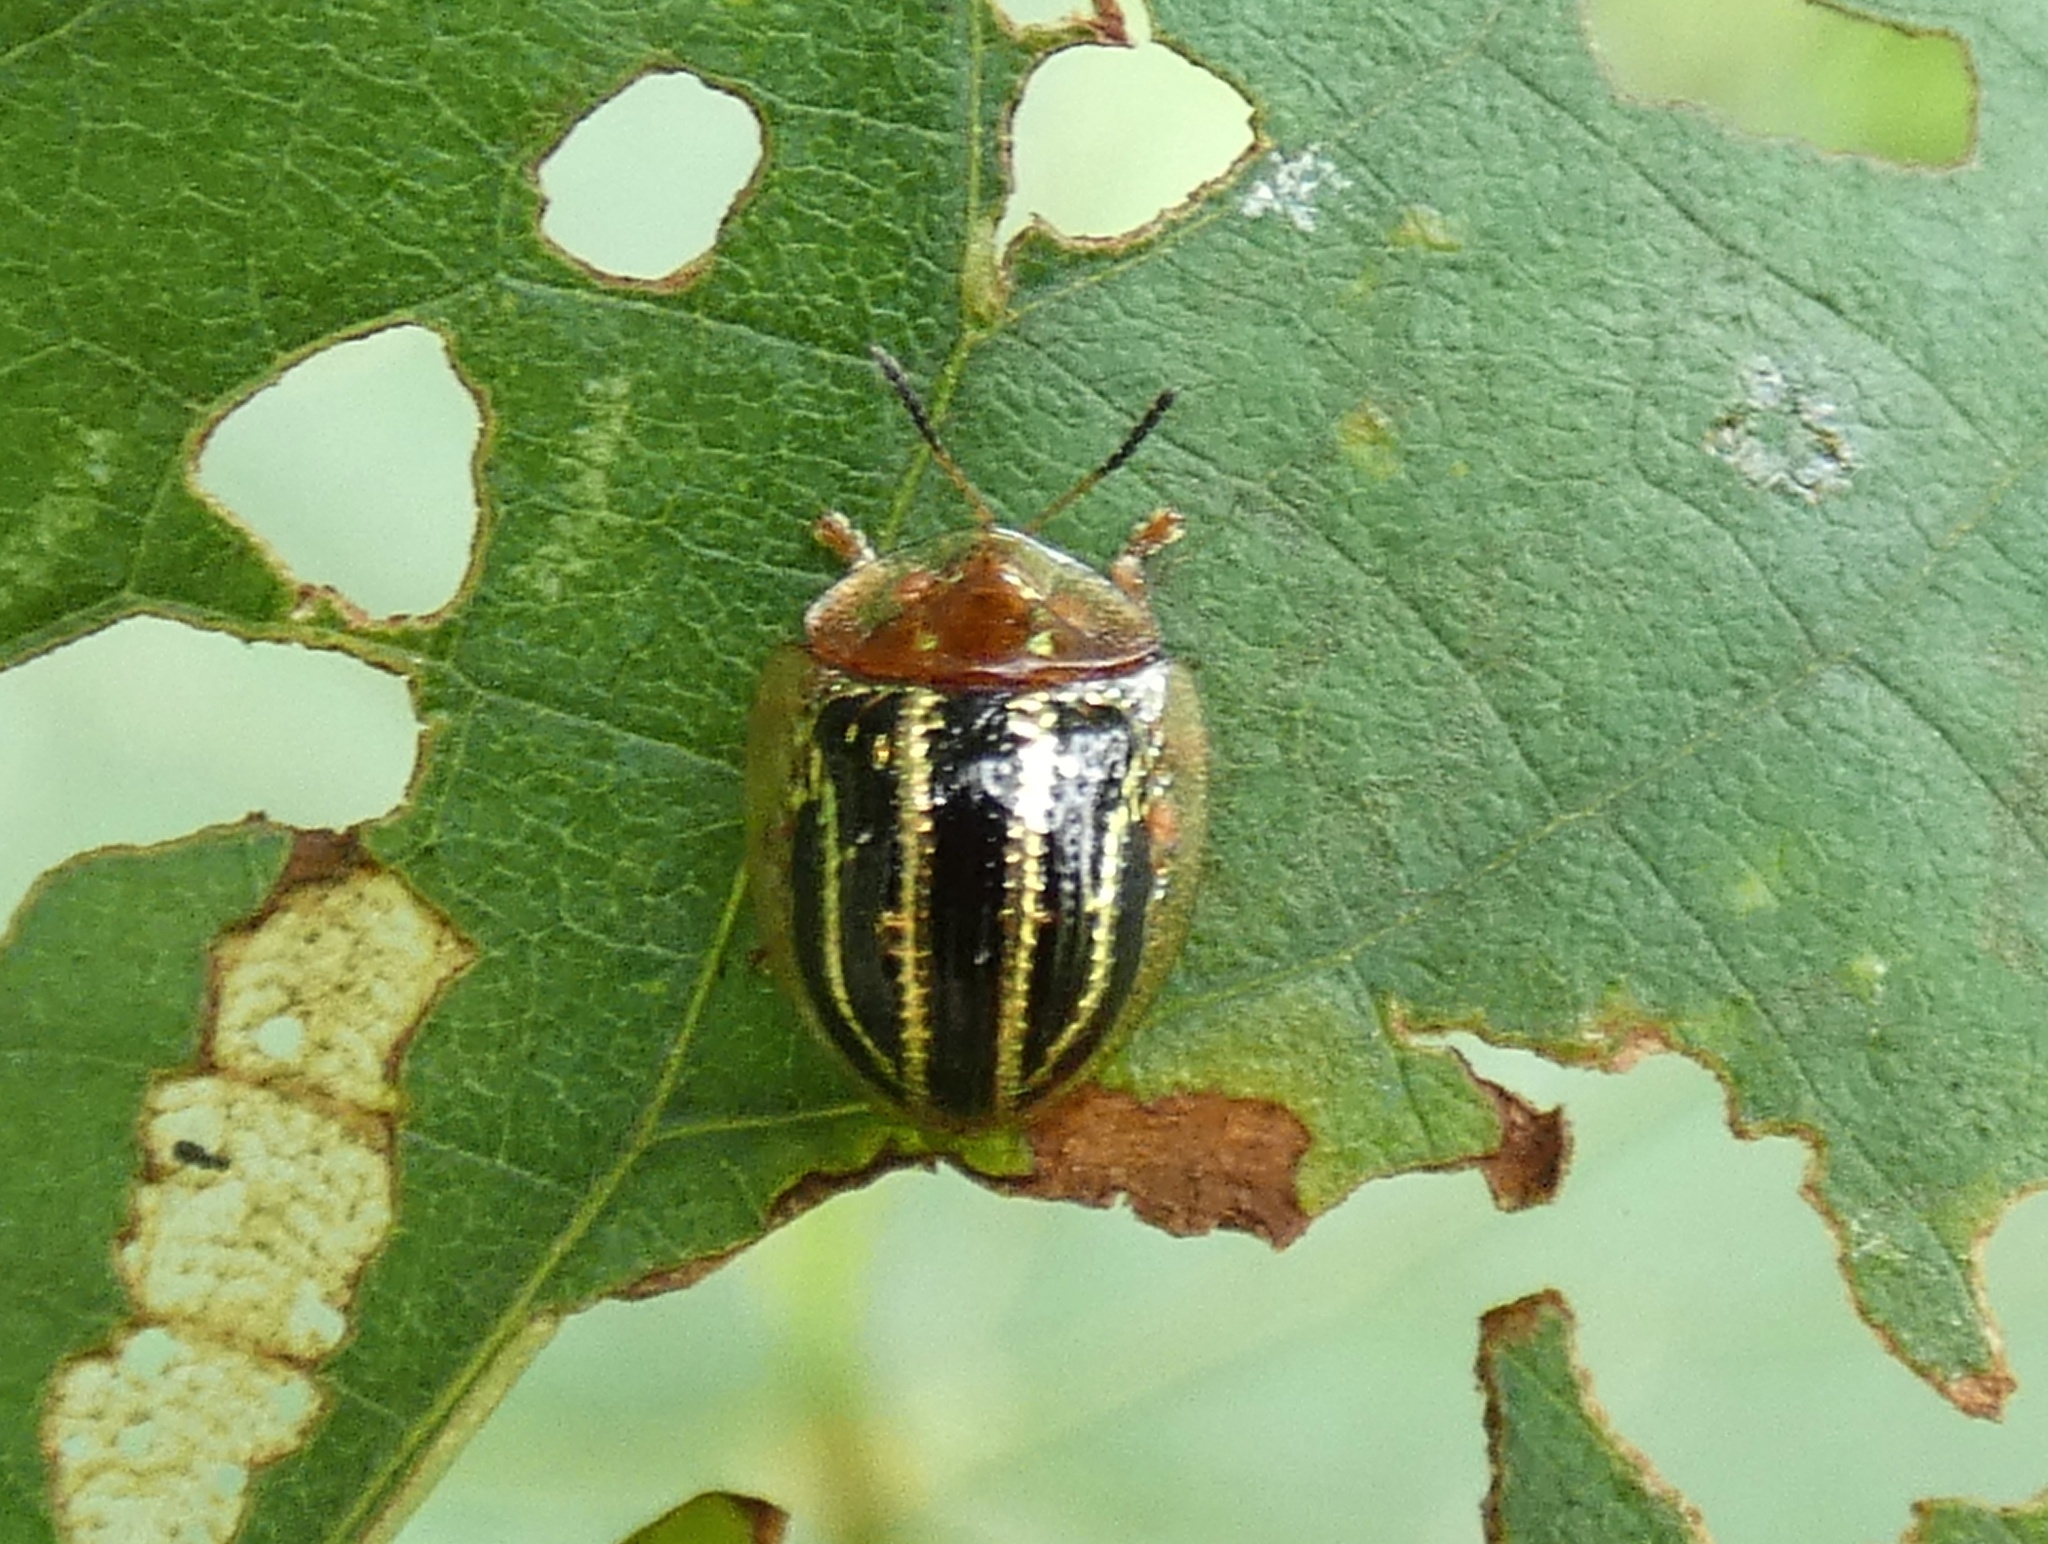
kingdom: Animalia
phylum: Arthropoda
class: Insecta
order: Coleoptera
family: Chrysomelidae
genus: Agroiconota
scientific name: Agroiconota propinqua
